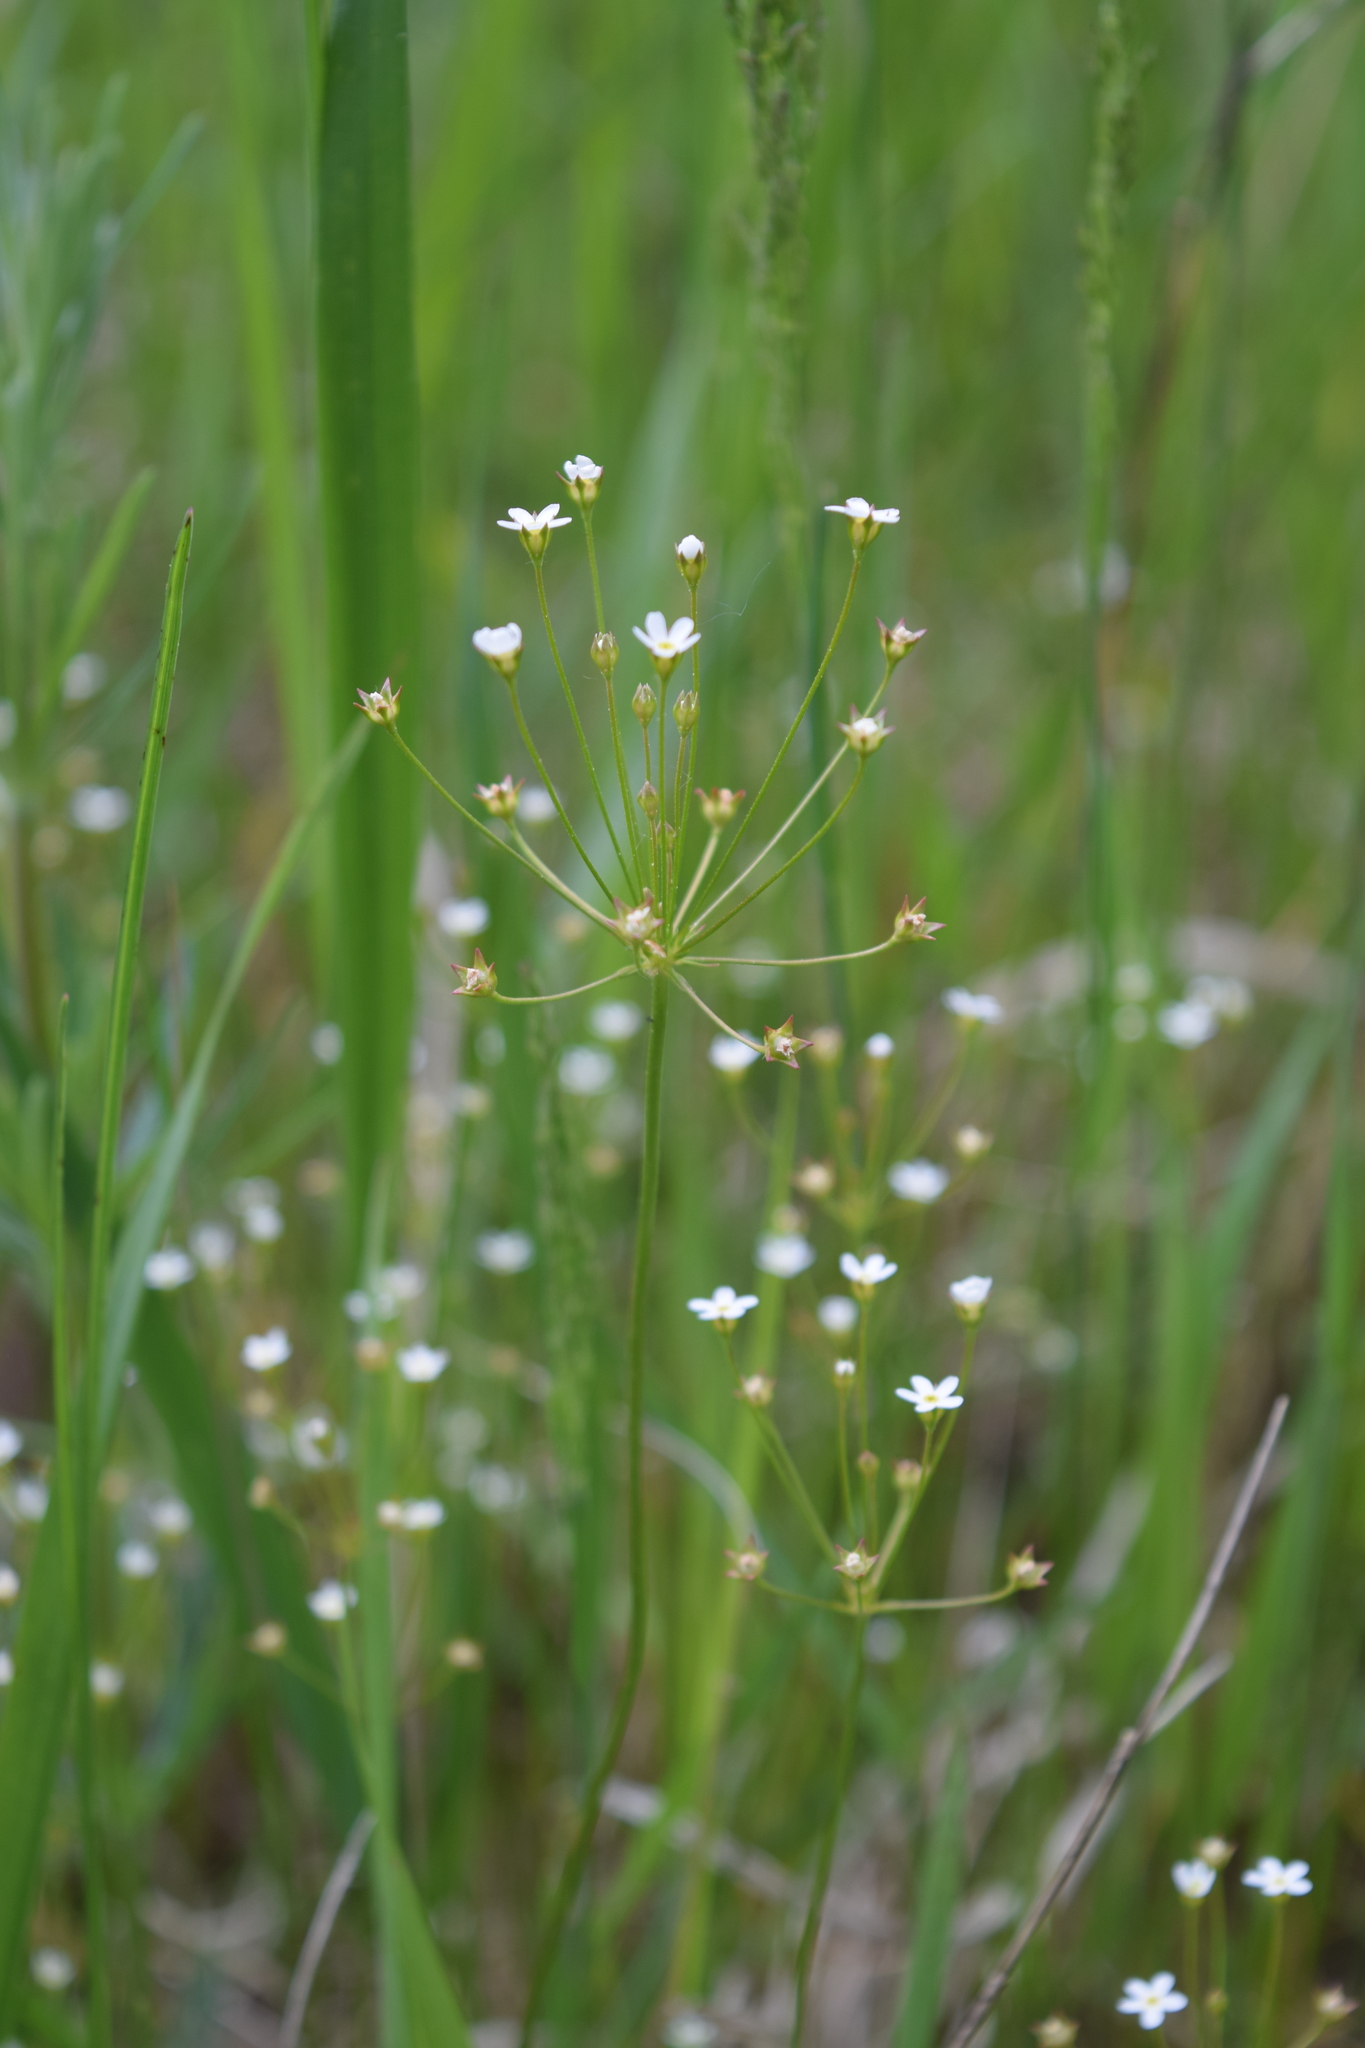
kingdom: Plantae
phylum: Tracheophyta
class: Magnoliopsida
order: Ericales
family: Primulaceae
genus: Androsace
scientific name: Androsace septentrionalis
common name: Hairy northern fairy-candelabra
